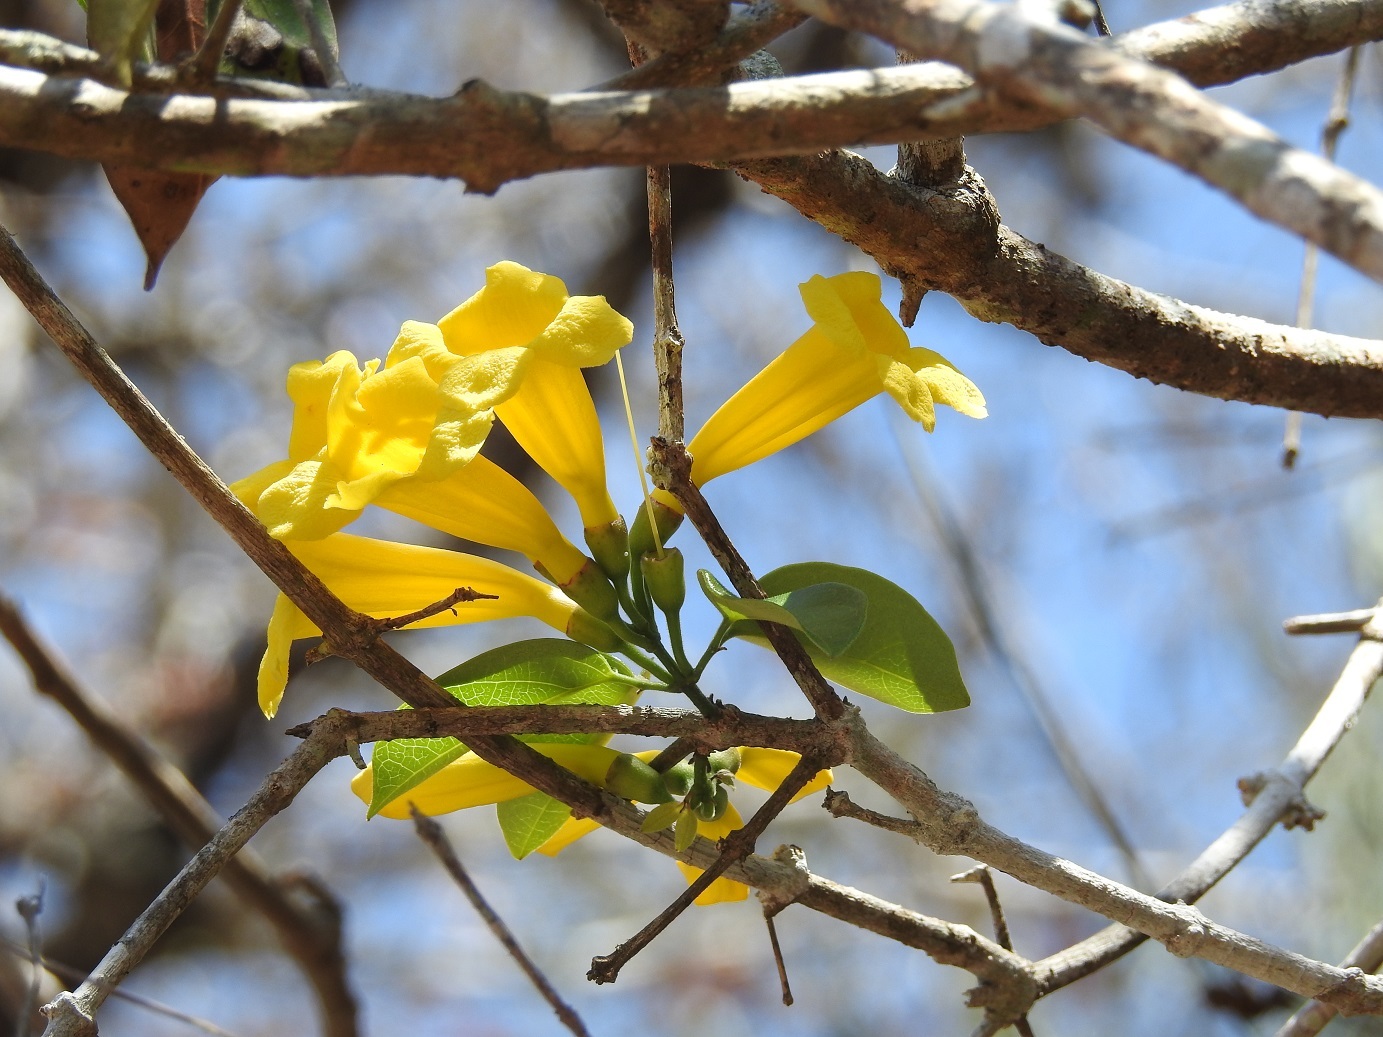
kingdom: Plantae
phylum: Tracheophyta
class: Magnoliopsida
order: Lamiales
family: Bignoniaceae
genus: Anemopaegma
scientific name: Anemopaegma chrysanthum
